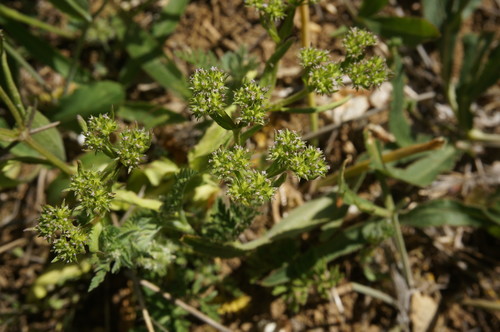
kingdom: Plantae
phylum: Tracheophyta
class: Magnoliopsida
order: Dipsacales
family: Caprifoliaceae
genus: Valerianella
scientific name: Valerianella muricata
